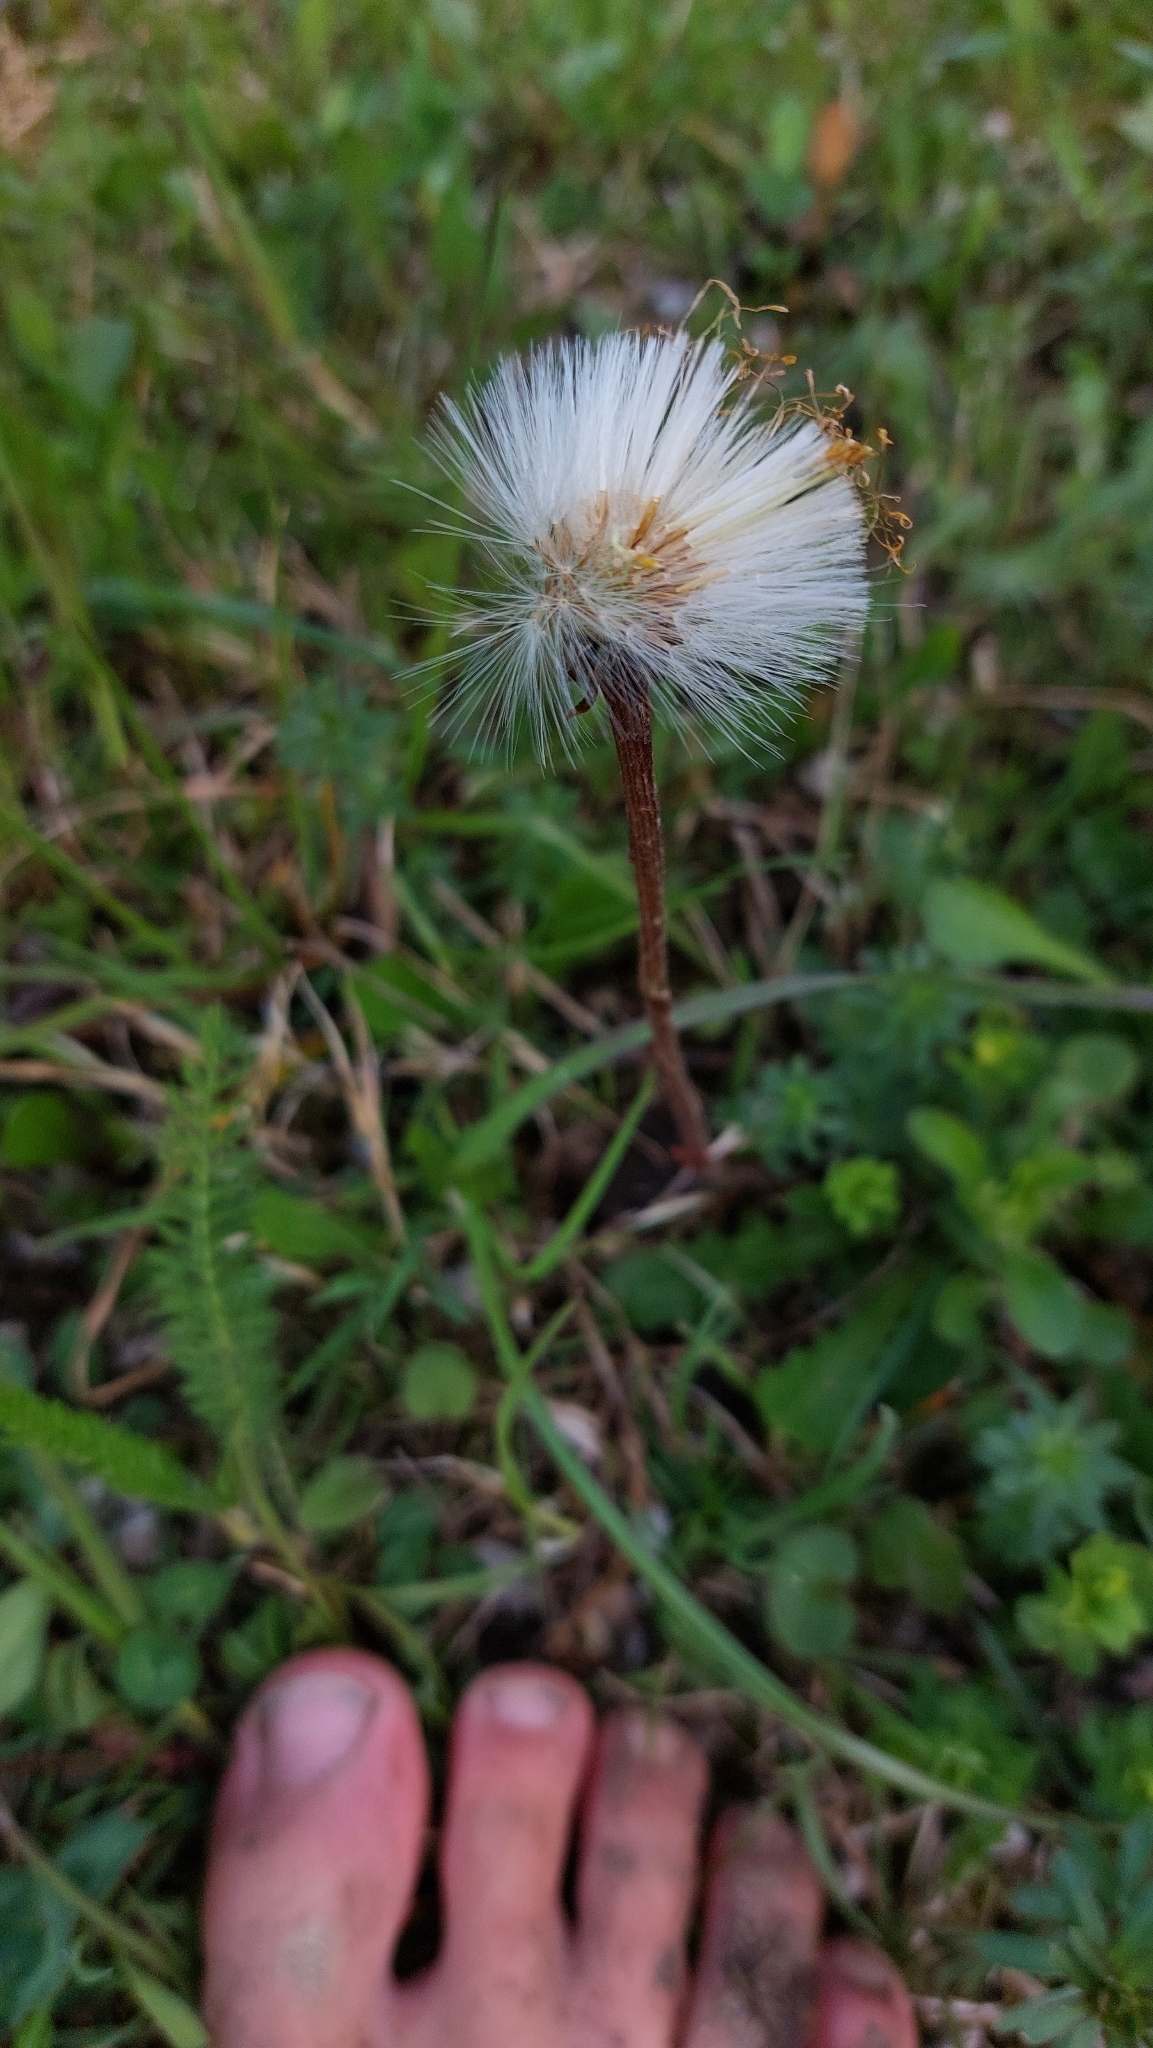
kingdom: Plantae
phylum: Tracheophyta
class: Magnoliopsida
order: Asterales
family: Asteraceae
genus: Tussilago
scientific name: Tussilago farfara
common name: Coltsfoot
